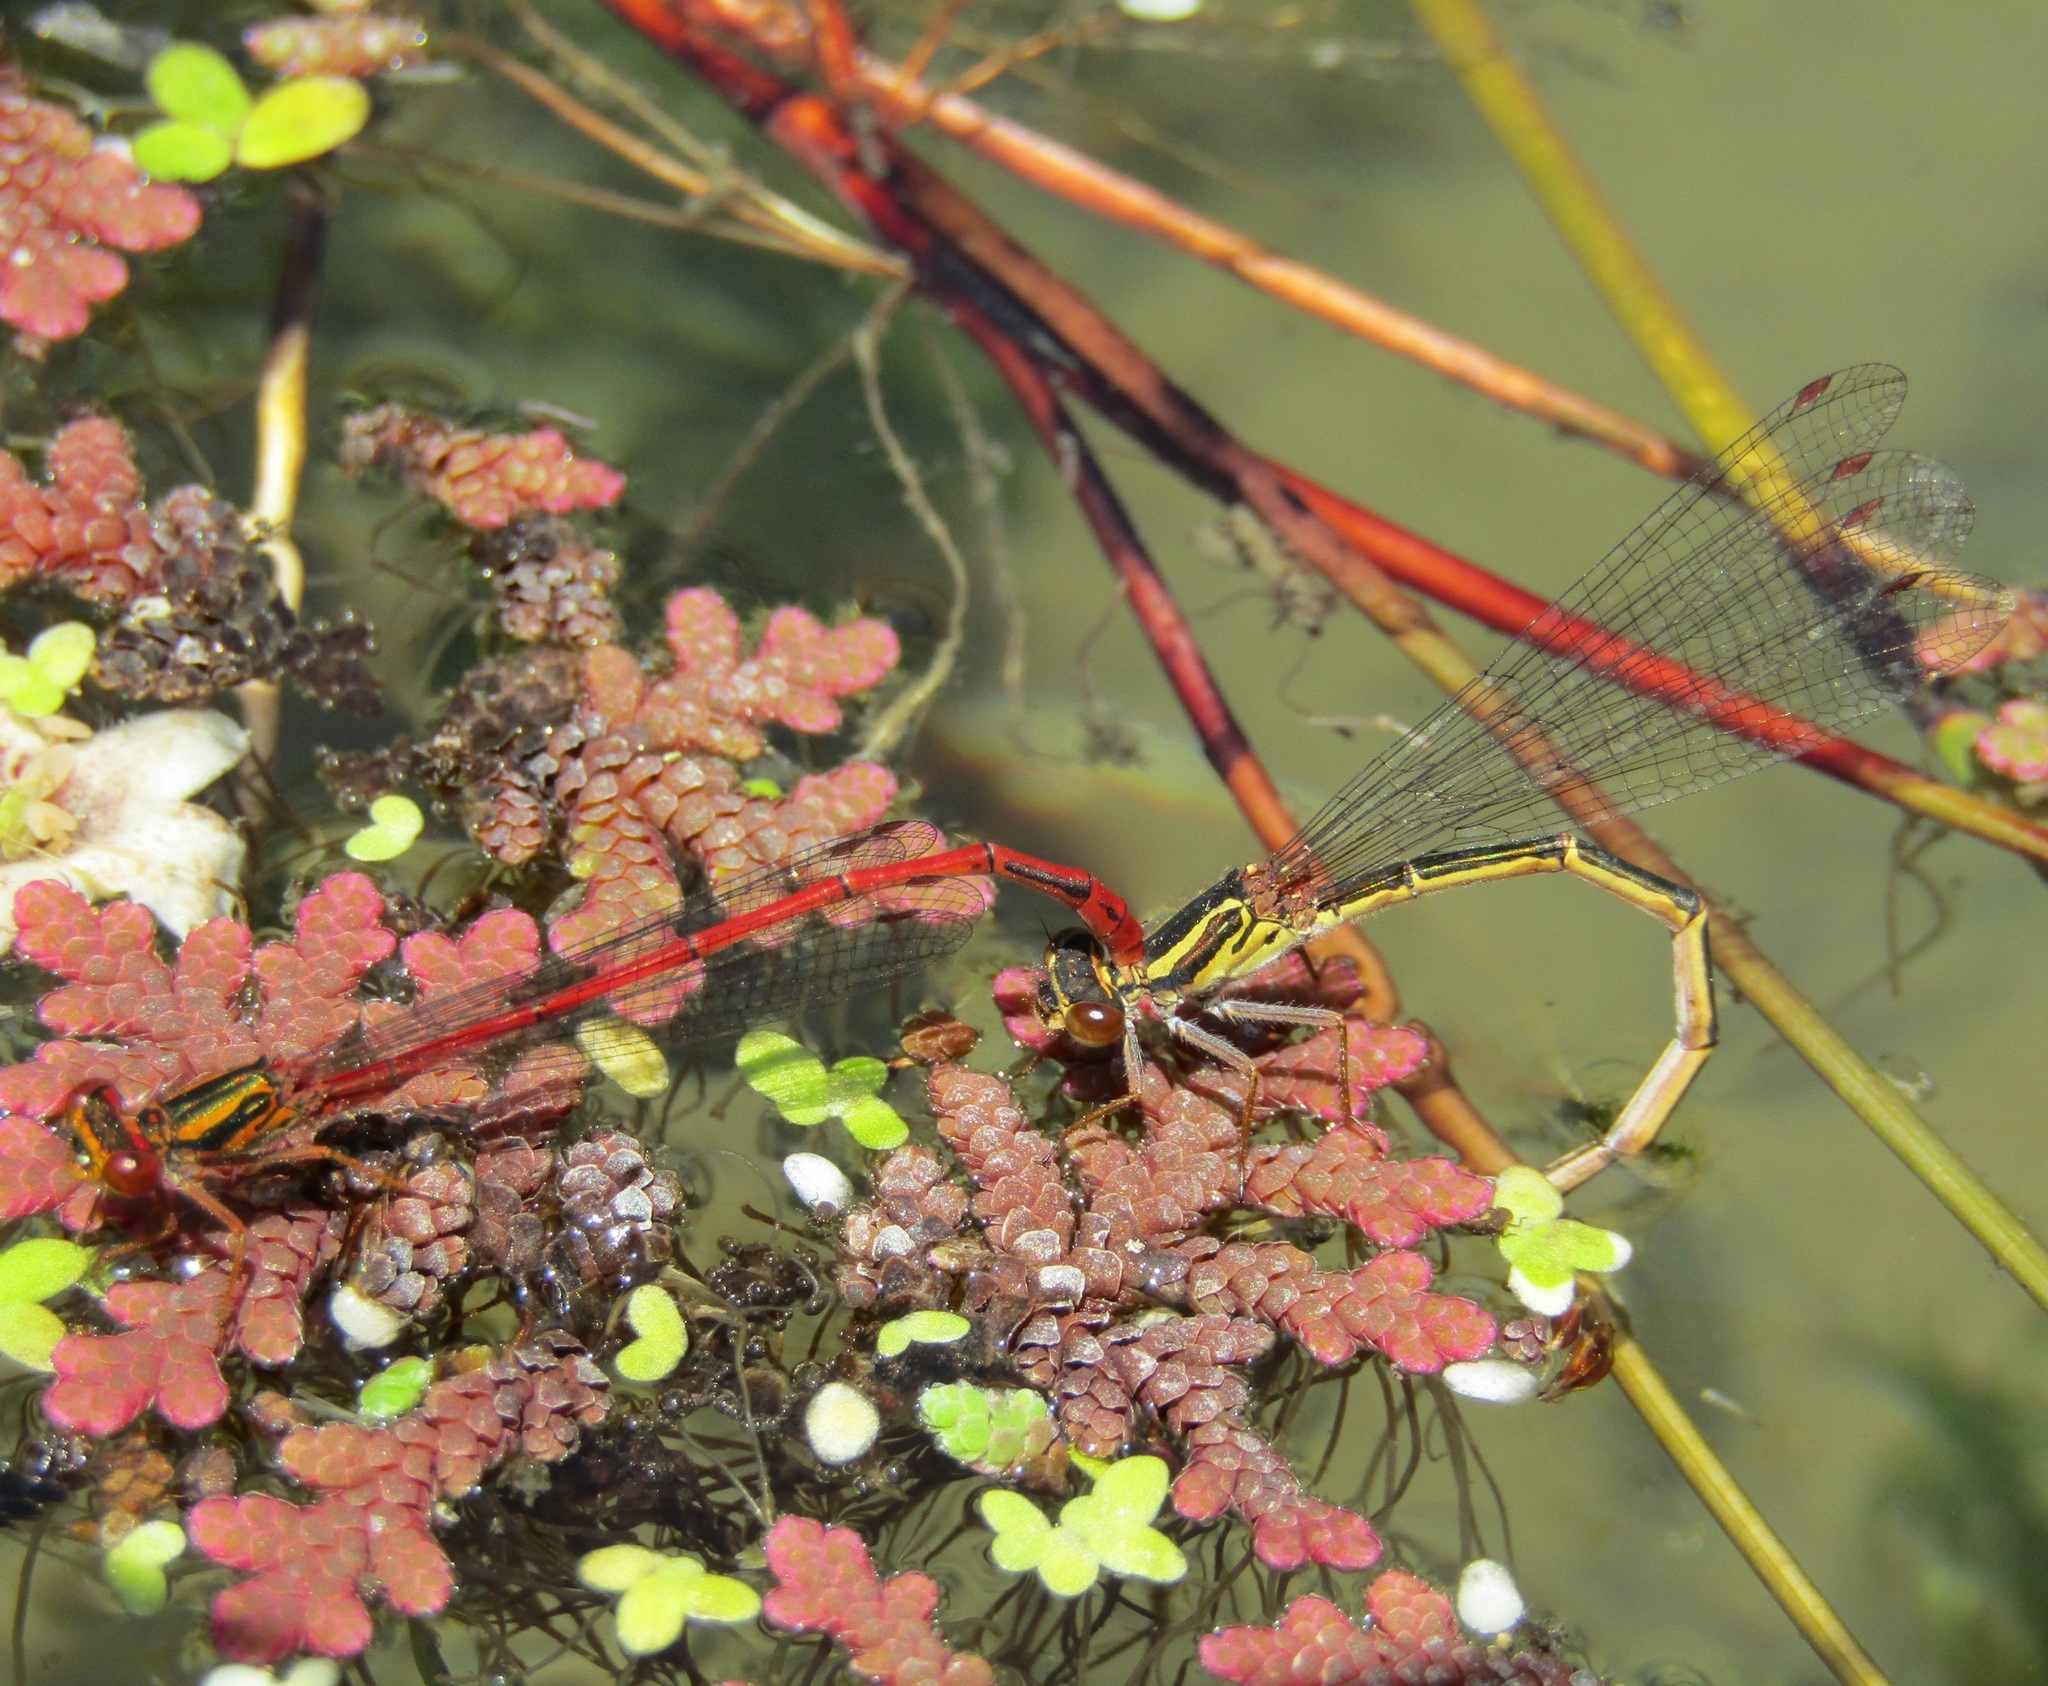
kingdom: Animalia
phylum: Arthropoda
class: Insecta
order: Odonata
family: Coenagrionidae
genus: Xanthocnemis
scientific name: Xanthocnemis zealandica
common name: Common redcoat damselfly
